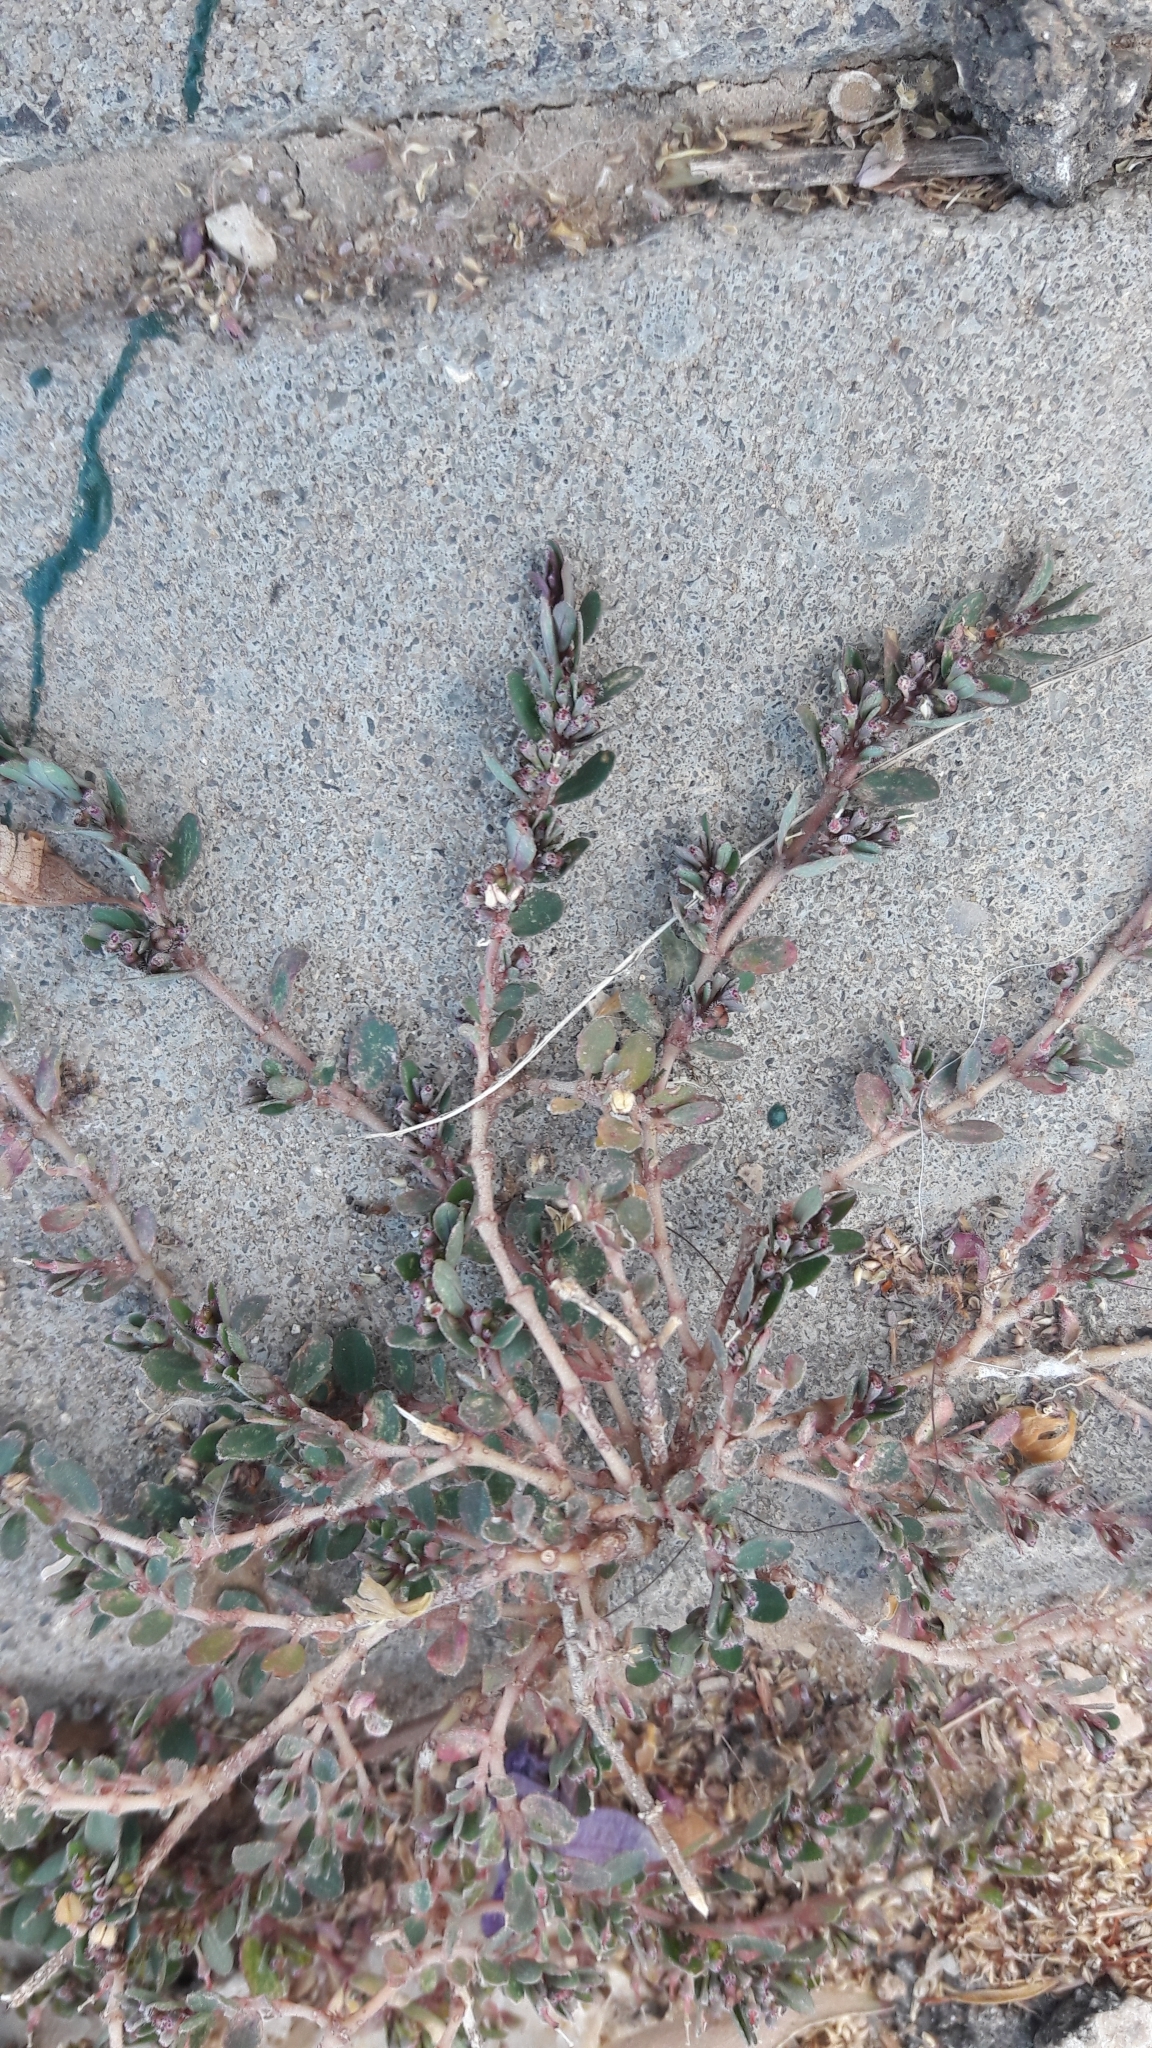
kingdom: Plantae
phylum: Tracheophyta
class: Magnoliopsida
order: Malpighiales
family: Euphorbiaceae
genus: Euphorbia
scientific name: Euphorbia prostrata
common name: Prostrate sandmat
